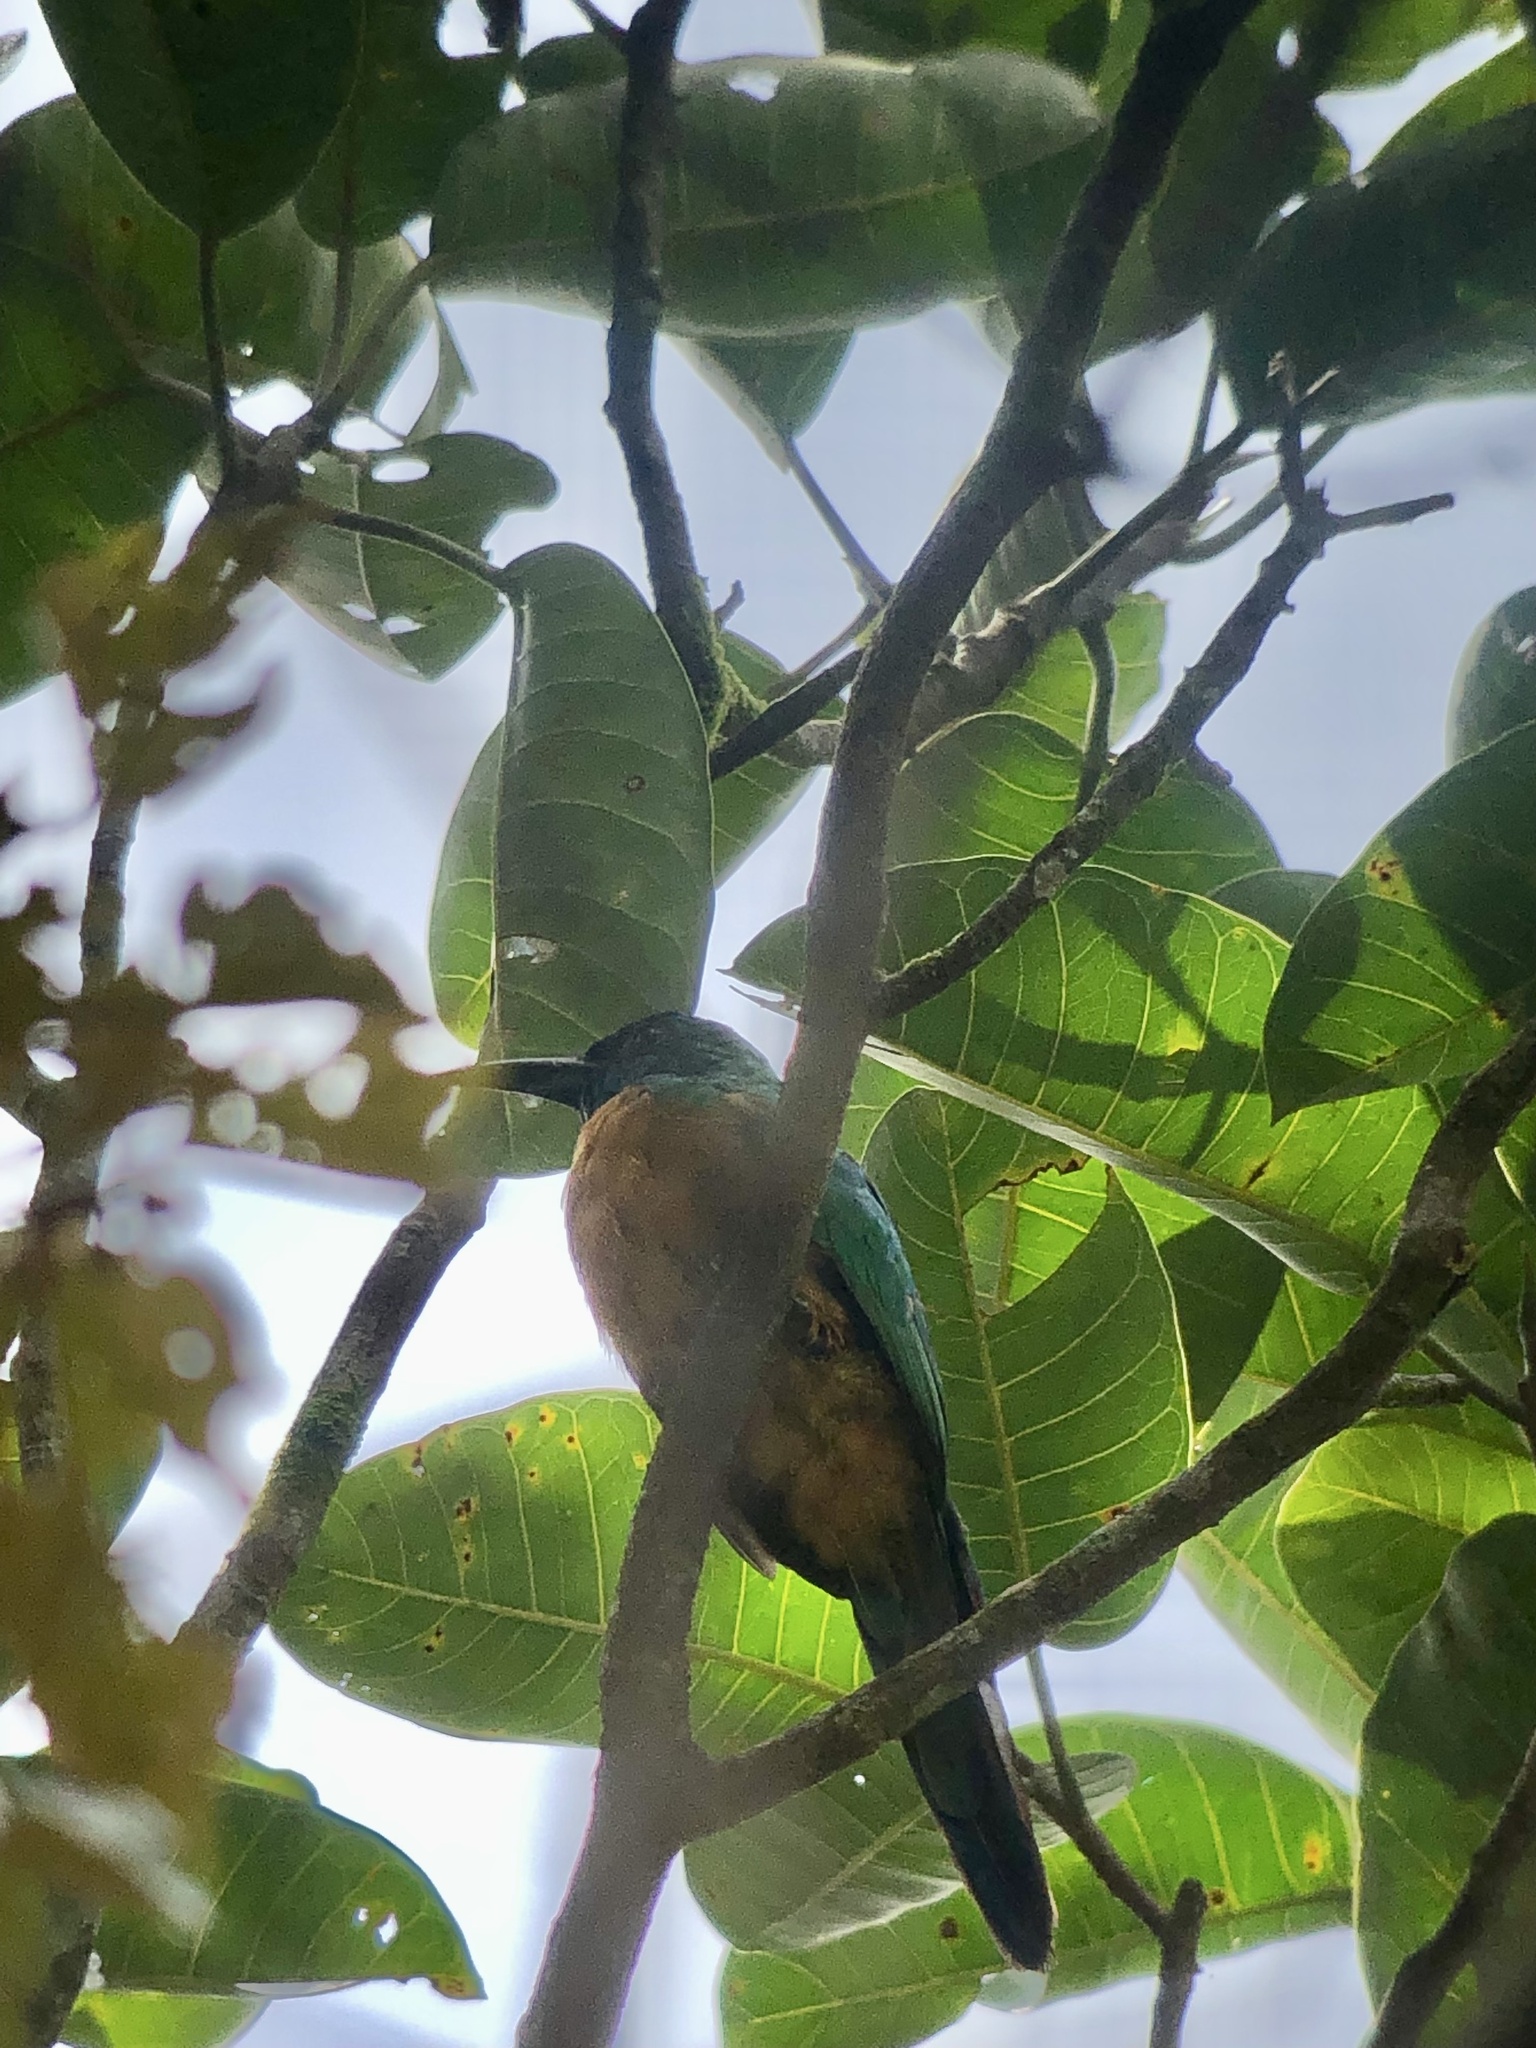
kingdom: Animalia
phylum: Chordata
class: Aves
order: Piciformes
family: Galbulidae
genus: Jacamerops
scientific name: Jacamerops aureus
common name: Great jacamar
